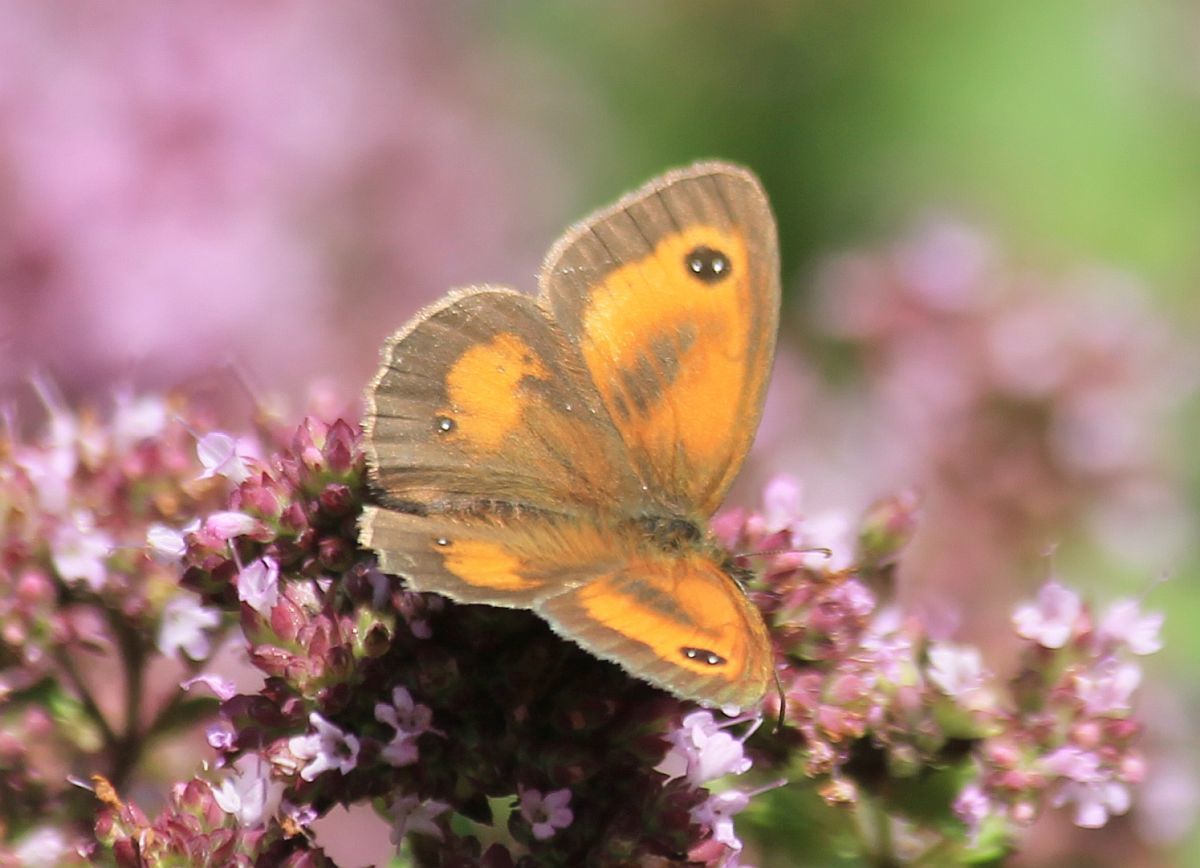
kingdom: Animalia
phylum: Arthropoda
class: Insecta
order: Lepidoptera
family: Nymphalidae
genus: Pyronia
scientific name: Pyronia tithonus
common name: Gatekeeper
